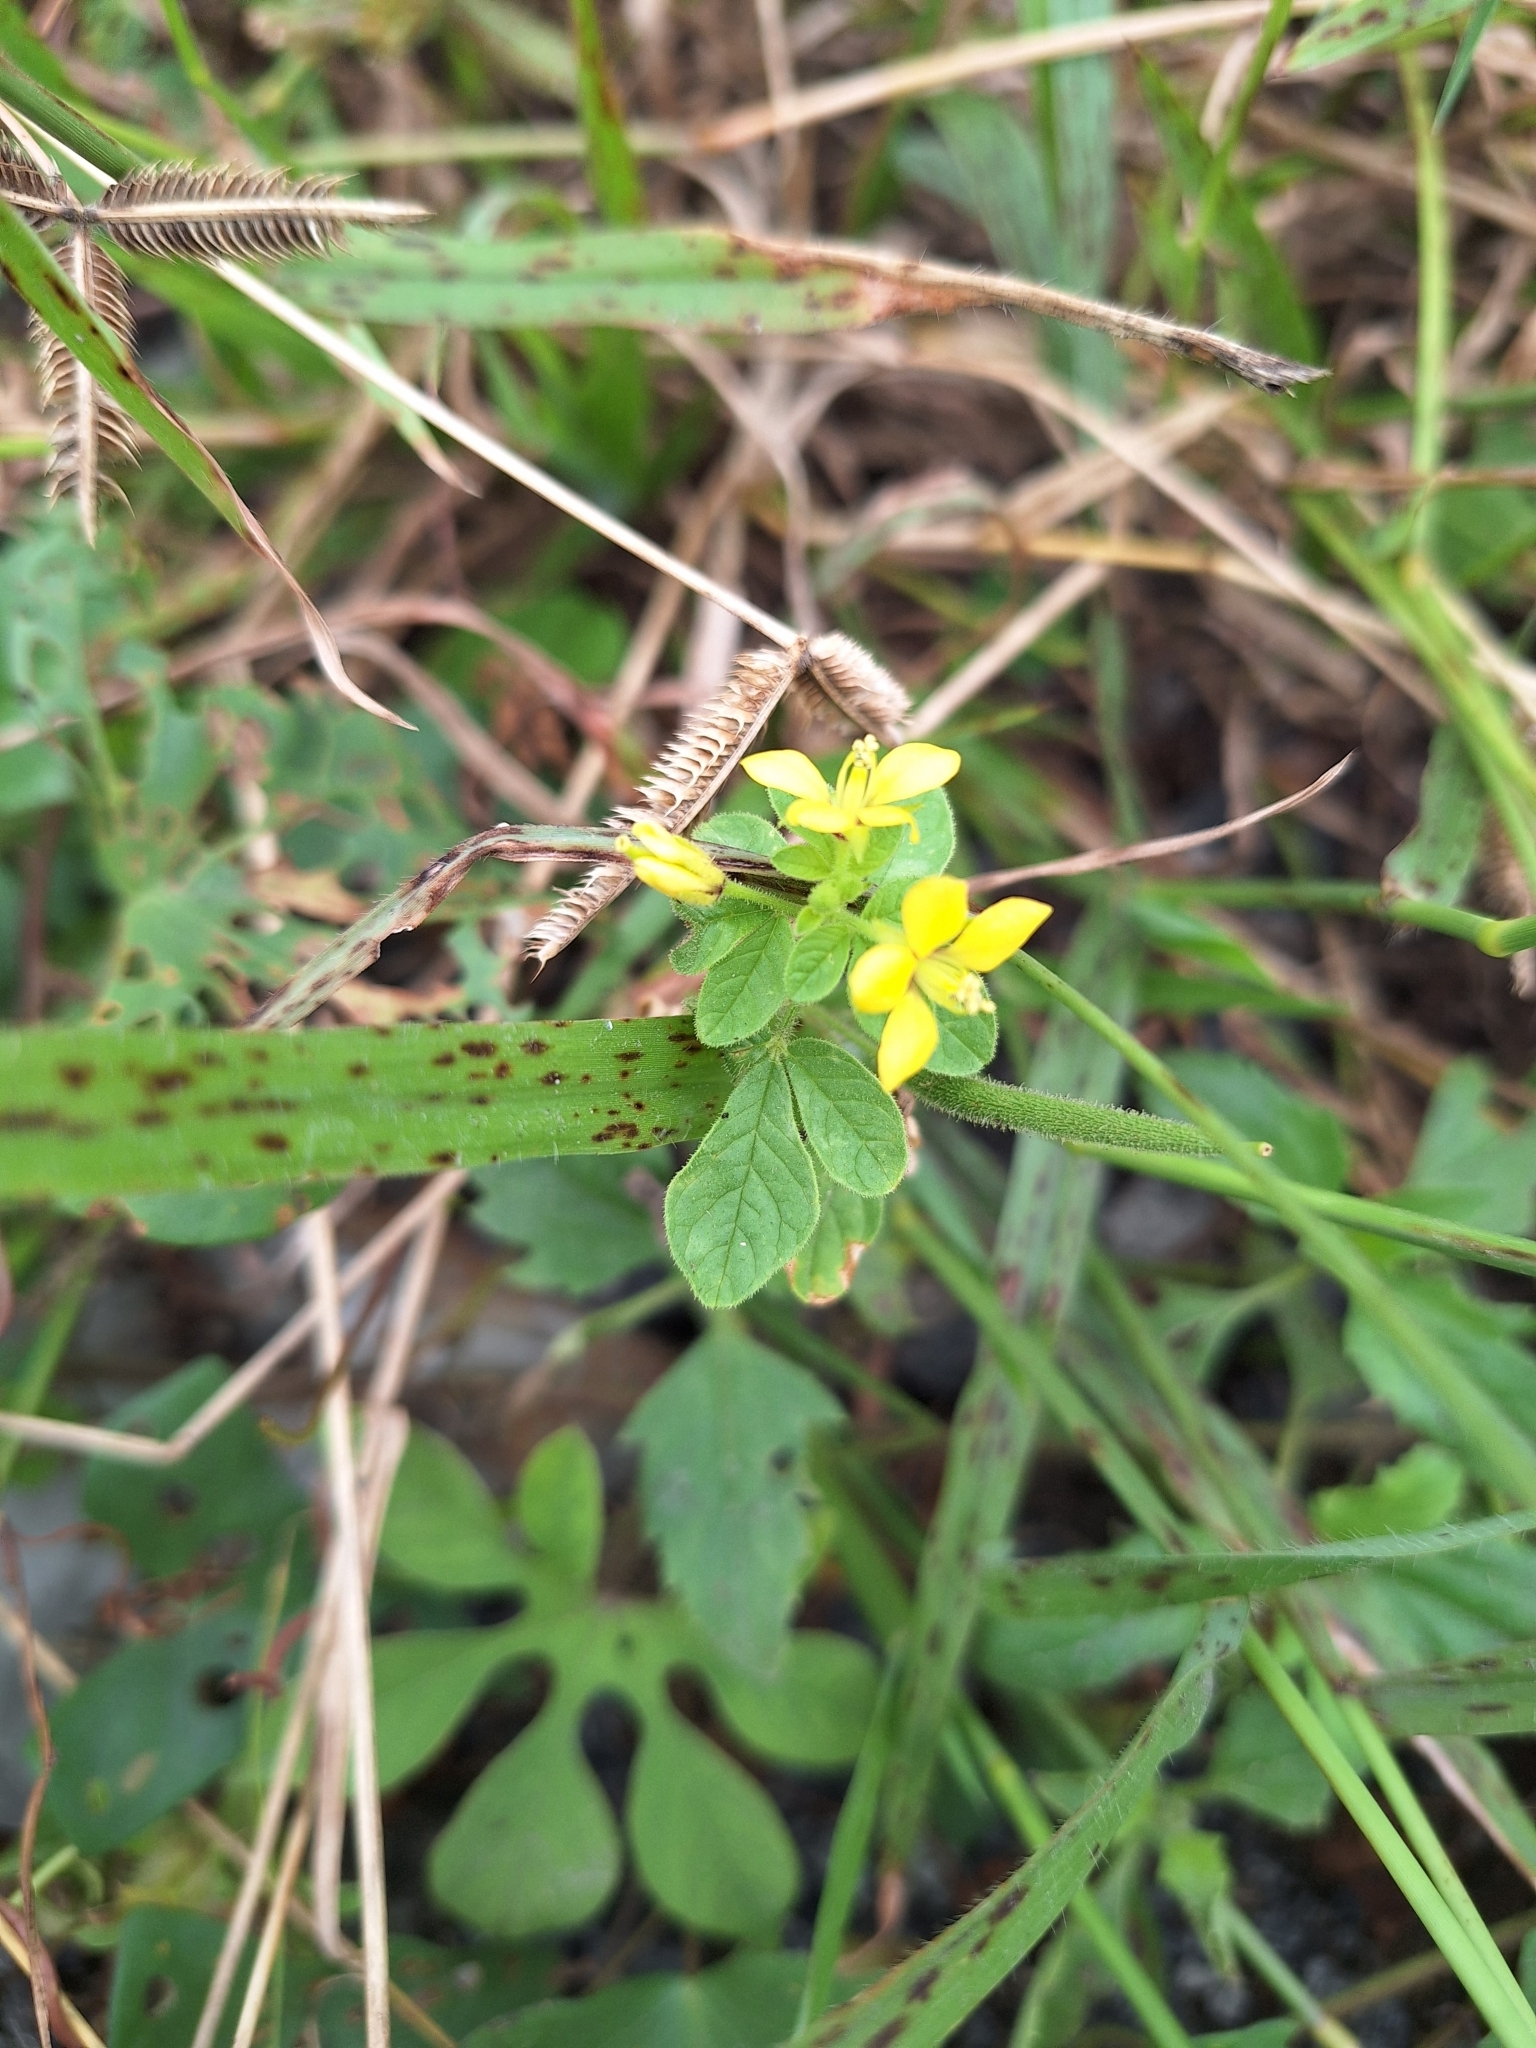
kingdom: Plantae
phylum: Tracheophyta
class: Magnoliopsida
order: Brassicales
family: Cleomaceae
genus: Arivela
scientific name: Arivela viscosa
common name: Asian spiderflower
